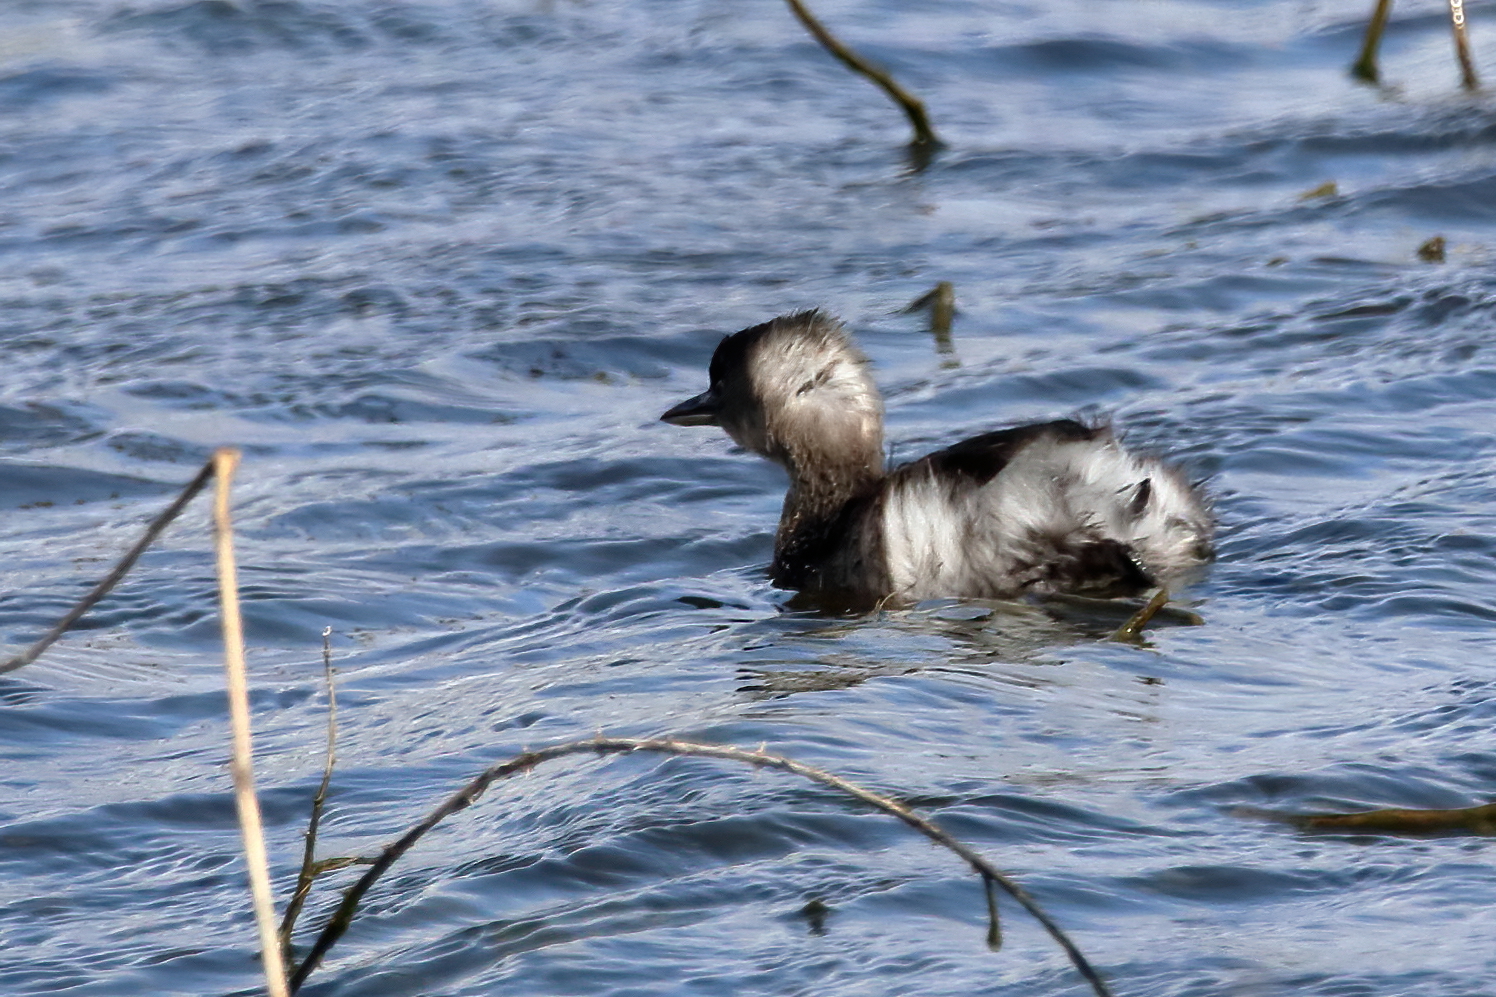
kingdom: Animalia
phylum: Chordata
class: Aves
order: Podicipediformes
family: Podicipedidae
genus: Tachybaptus
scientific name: Tachybaptus dominicus
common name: Least grebe
